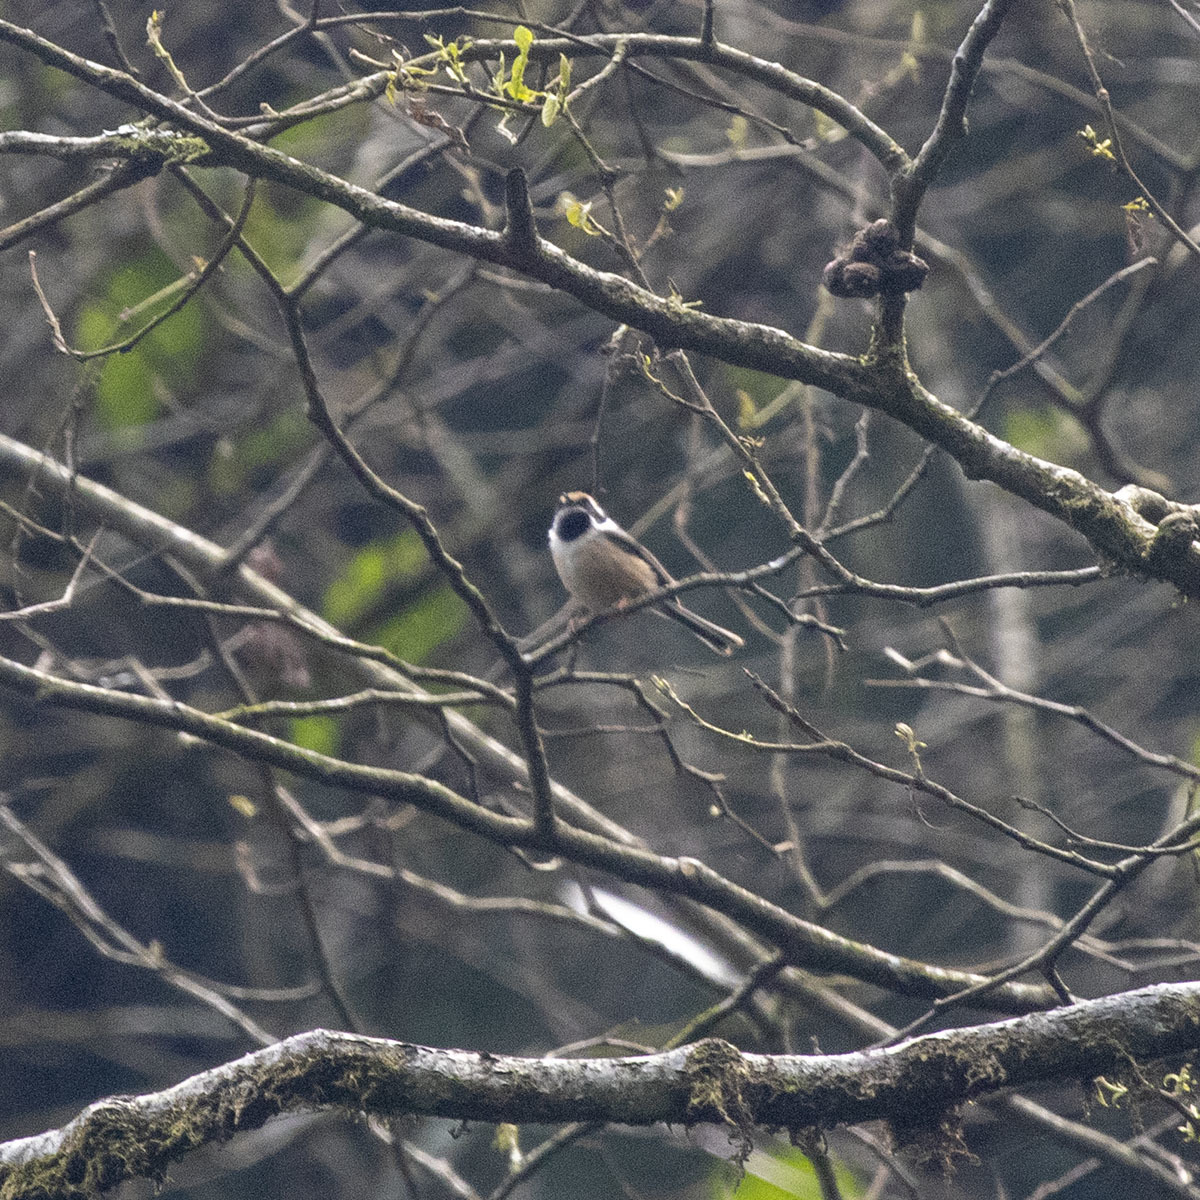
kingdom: Animalia
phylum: Chordata
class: Aves
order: Passeriformes
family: Aegithalidae
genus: Aegithalos
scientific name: Aegithalos concinnus
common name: Black-throated bushtit
